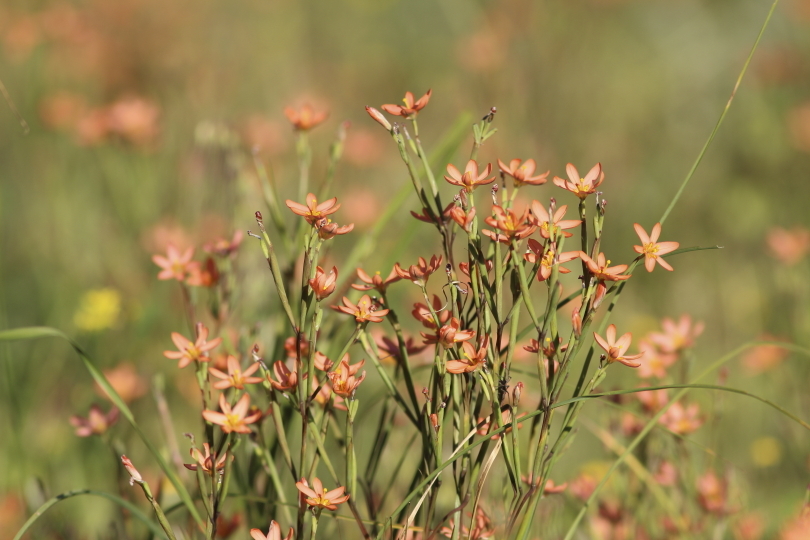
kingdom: Plantae
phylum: Tracheophyta
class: Liliopsida
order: Asparagales
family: Iridaceae
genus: Moraea
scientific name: Moraea miniata
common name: Two-leaf cape-tulip
